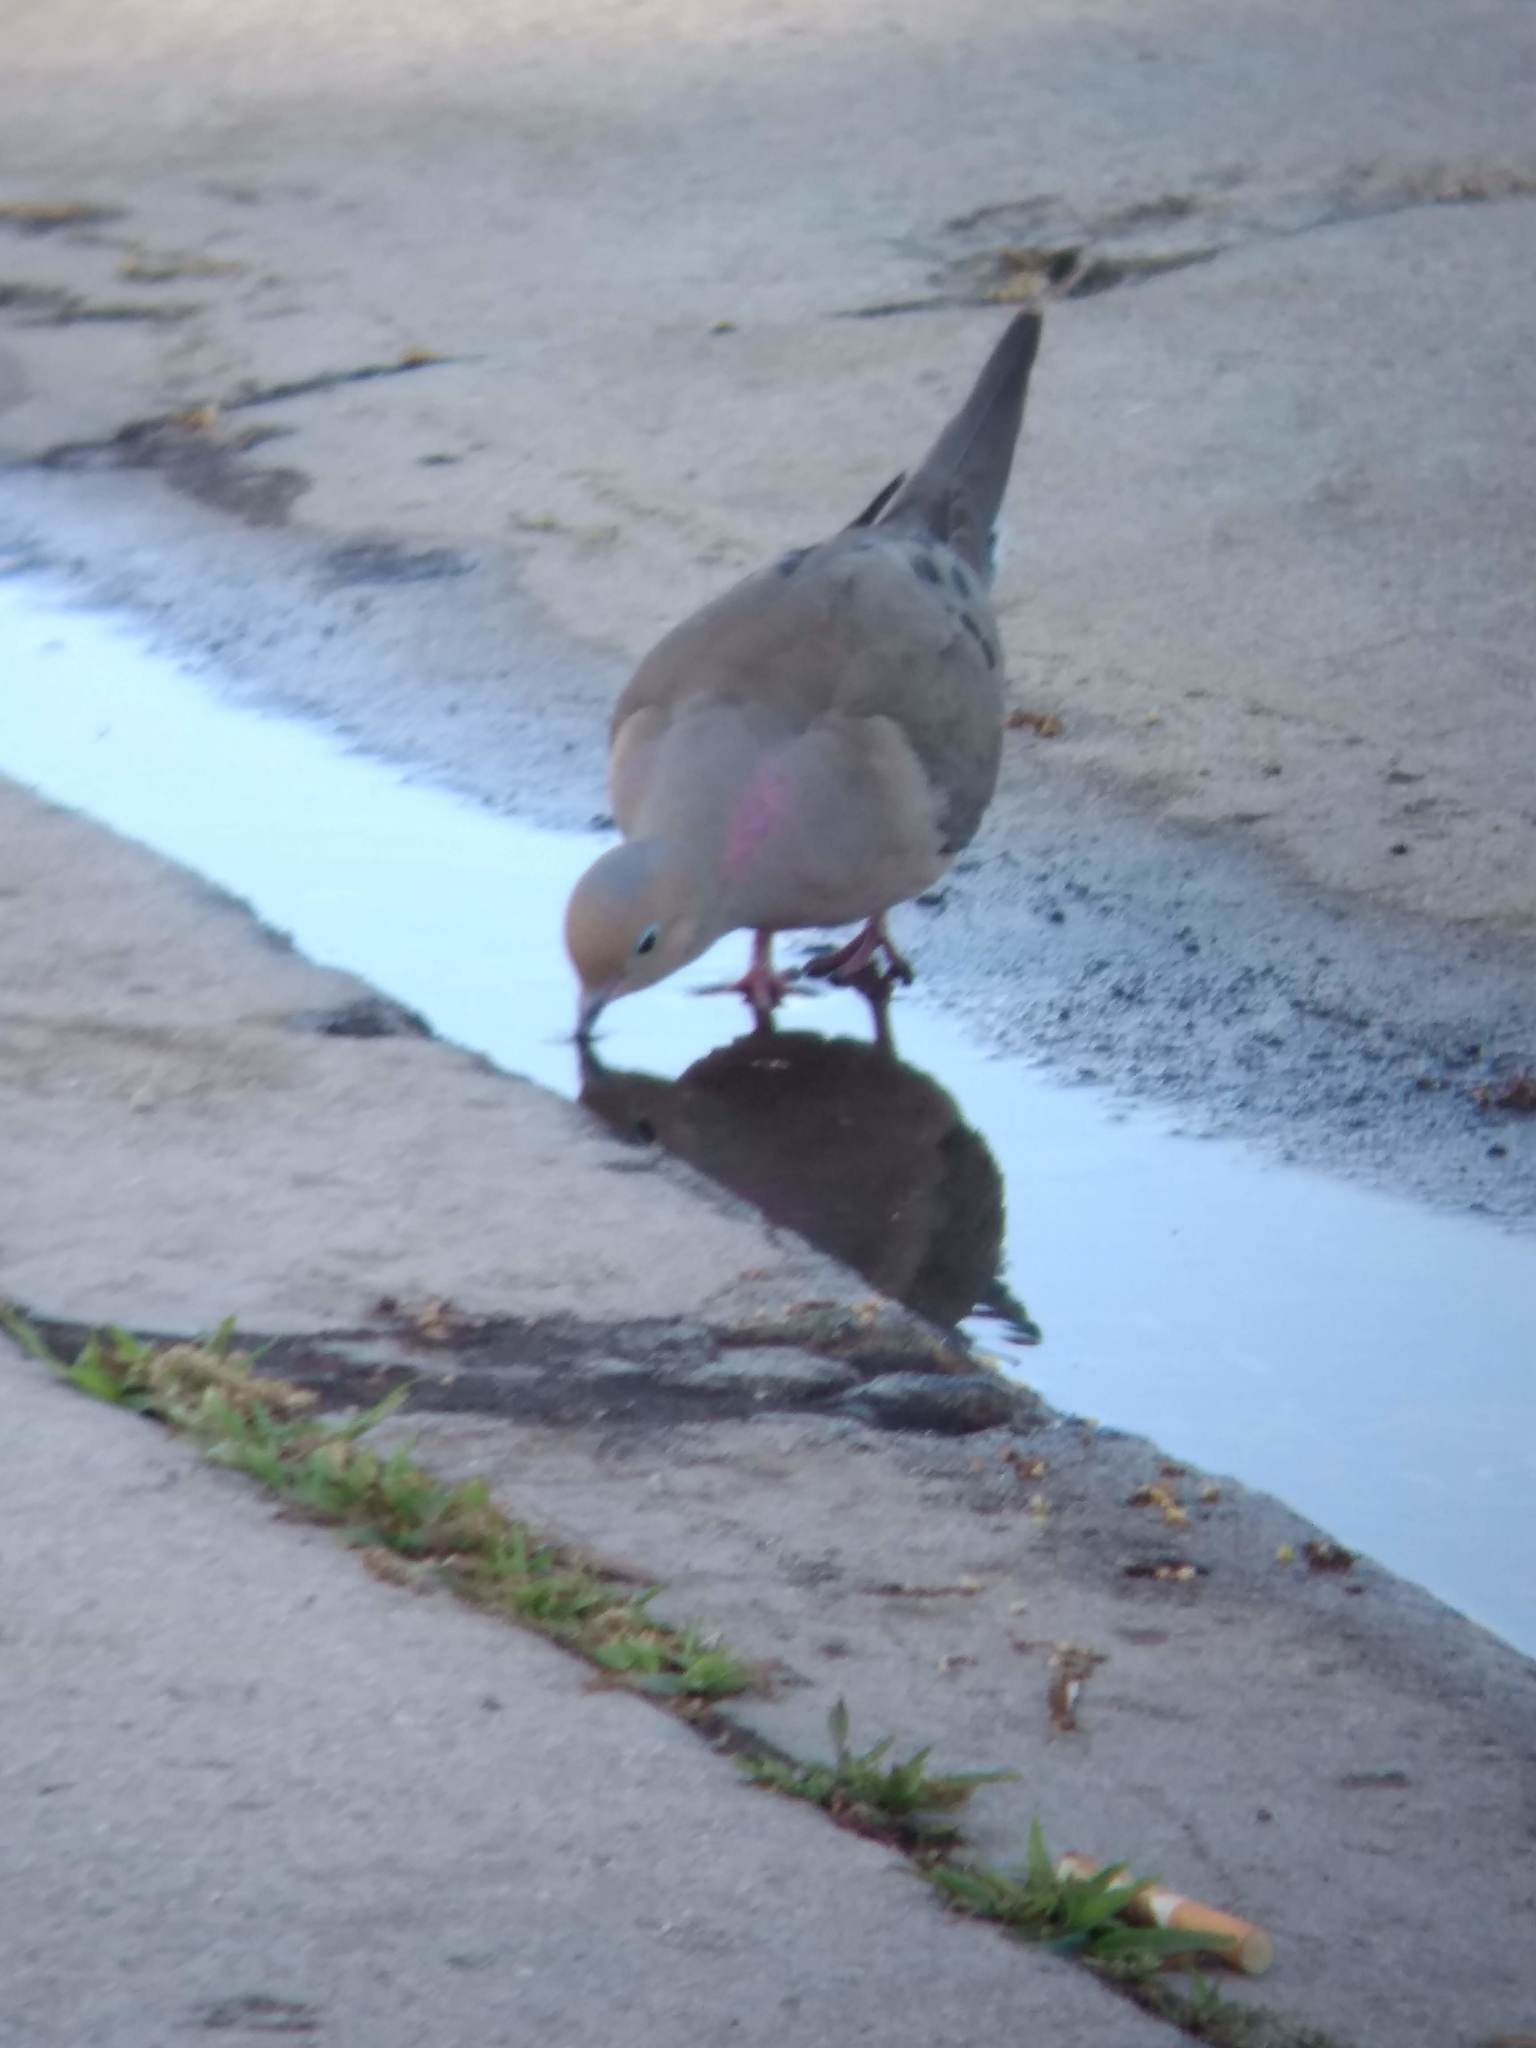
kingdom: Animalia
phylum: Chordata
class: Aves
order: Columbiformes
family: Columbidae
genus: Zenaida
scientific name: Zenaida macroura
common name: Mourning dove
